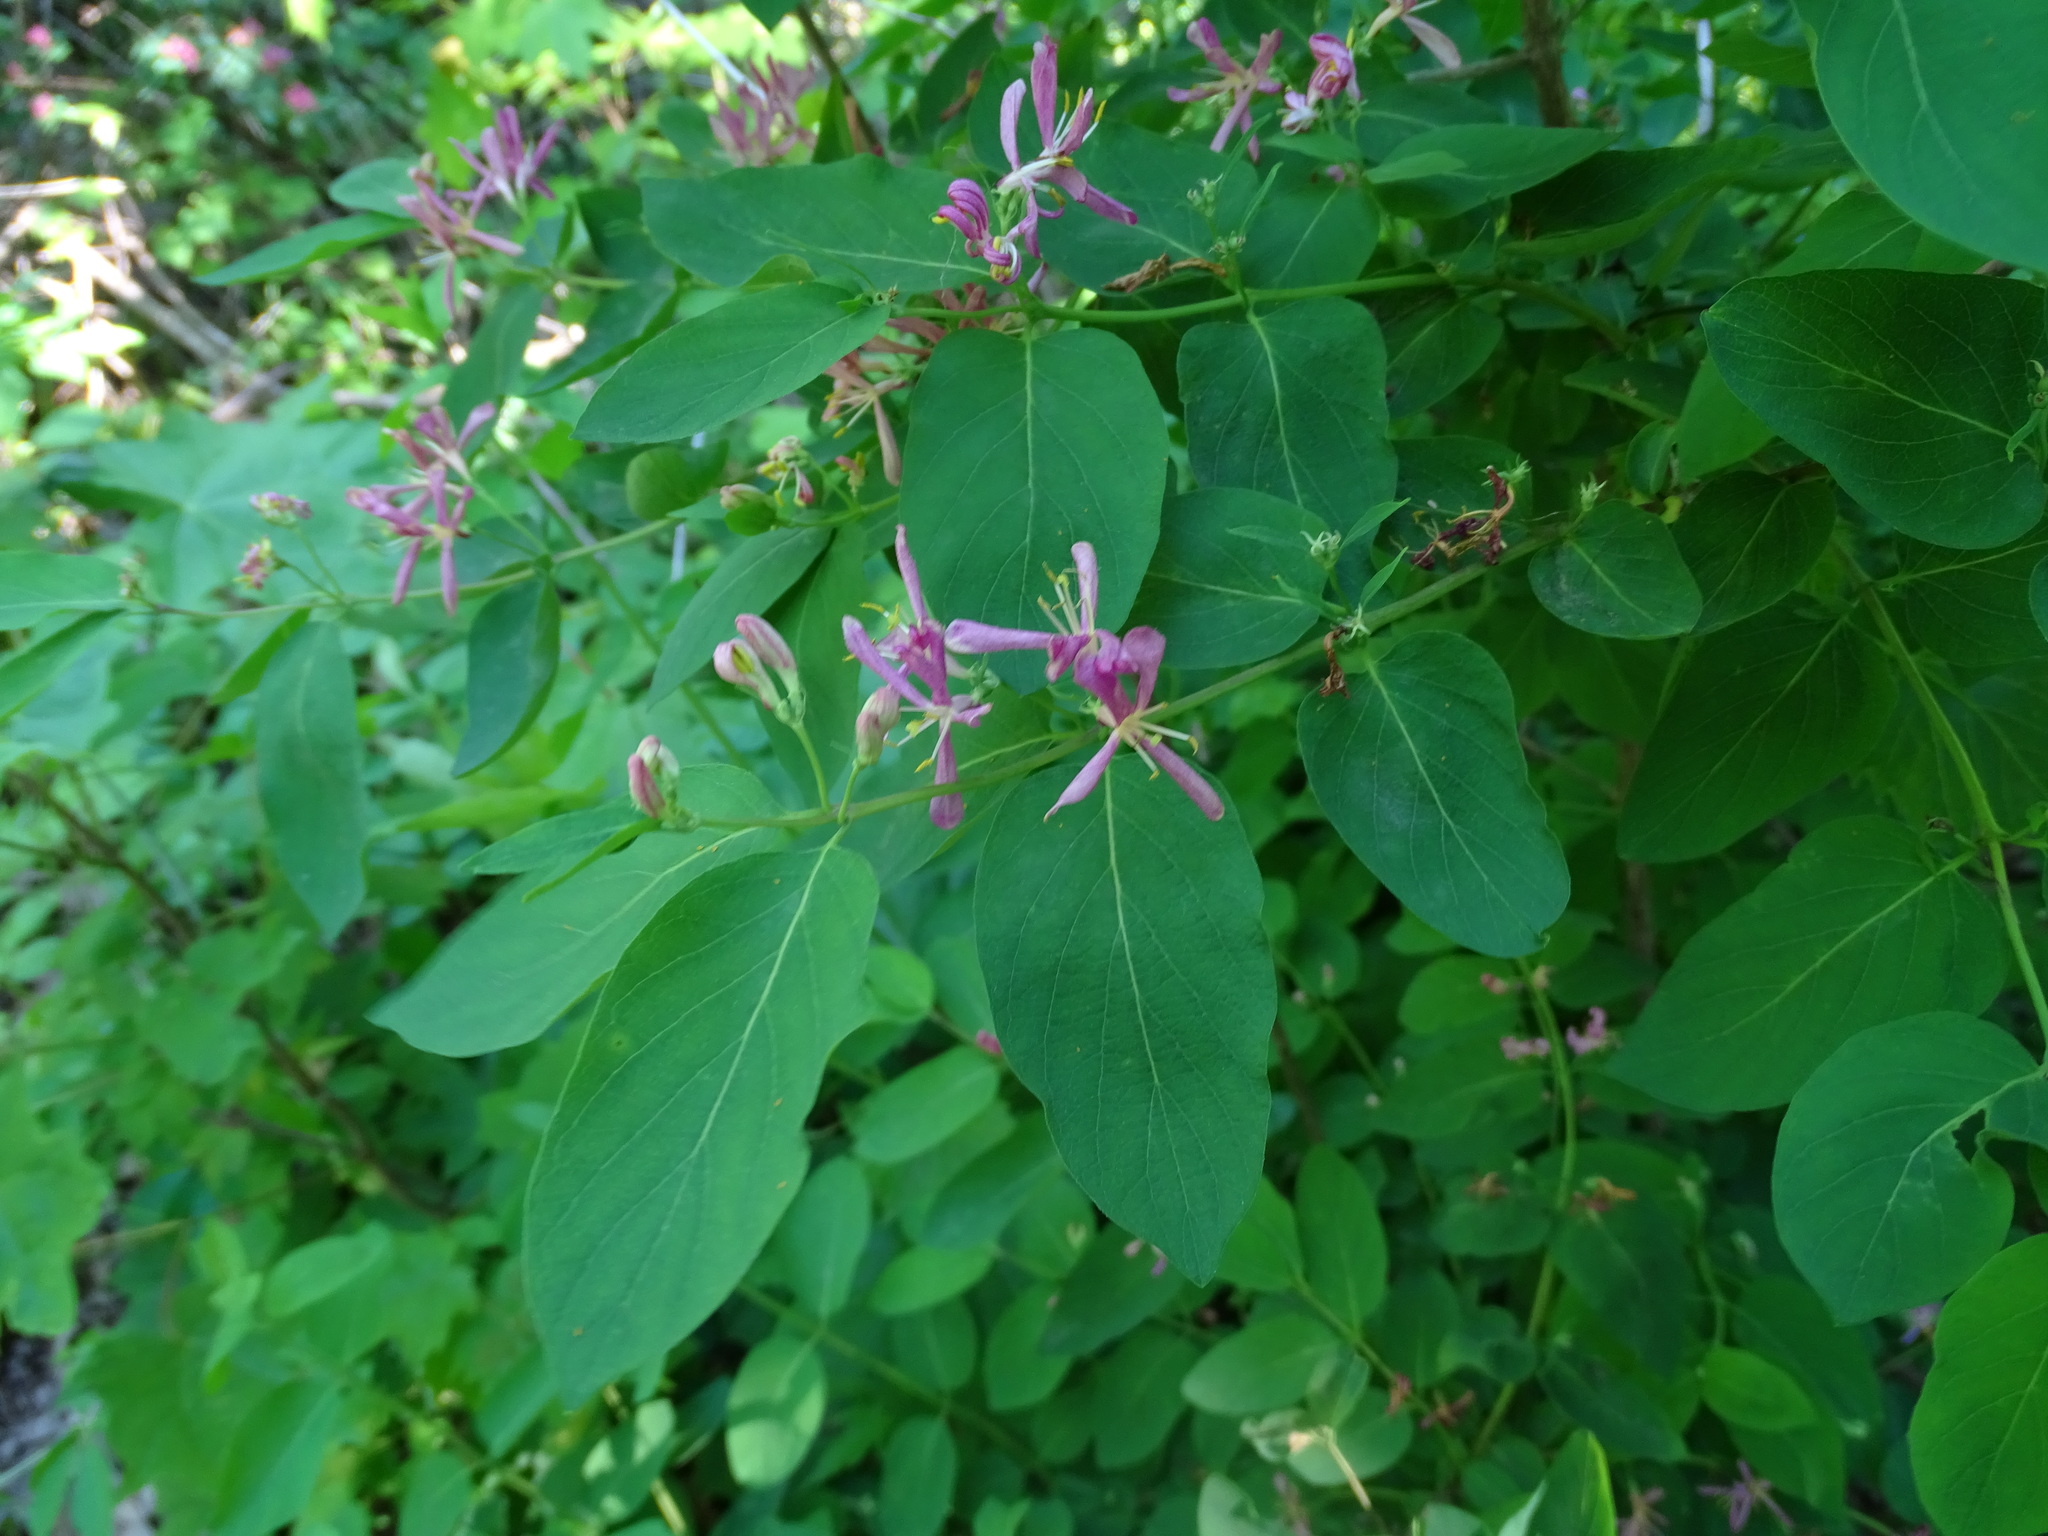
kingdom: Plantae
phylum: Tracheophyta
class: Magnoliopsida
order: Dipsacales
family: Caprifoliaceae
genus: Lonicera
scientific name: Lonicera tatarica
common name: Tatarian honeysuckle
